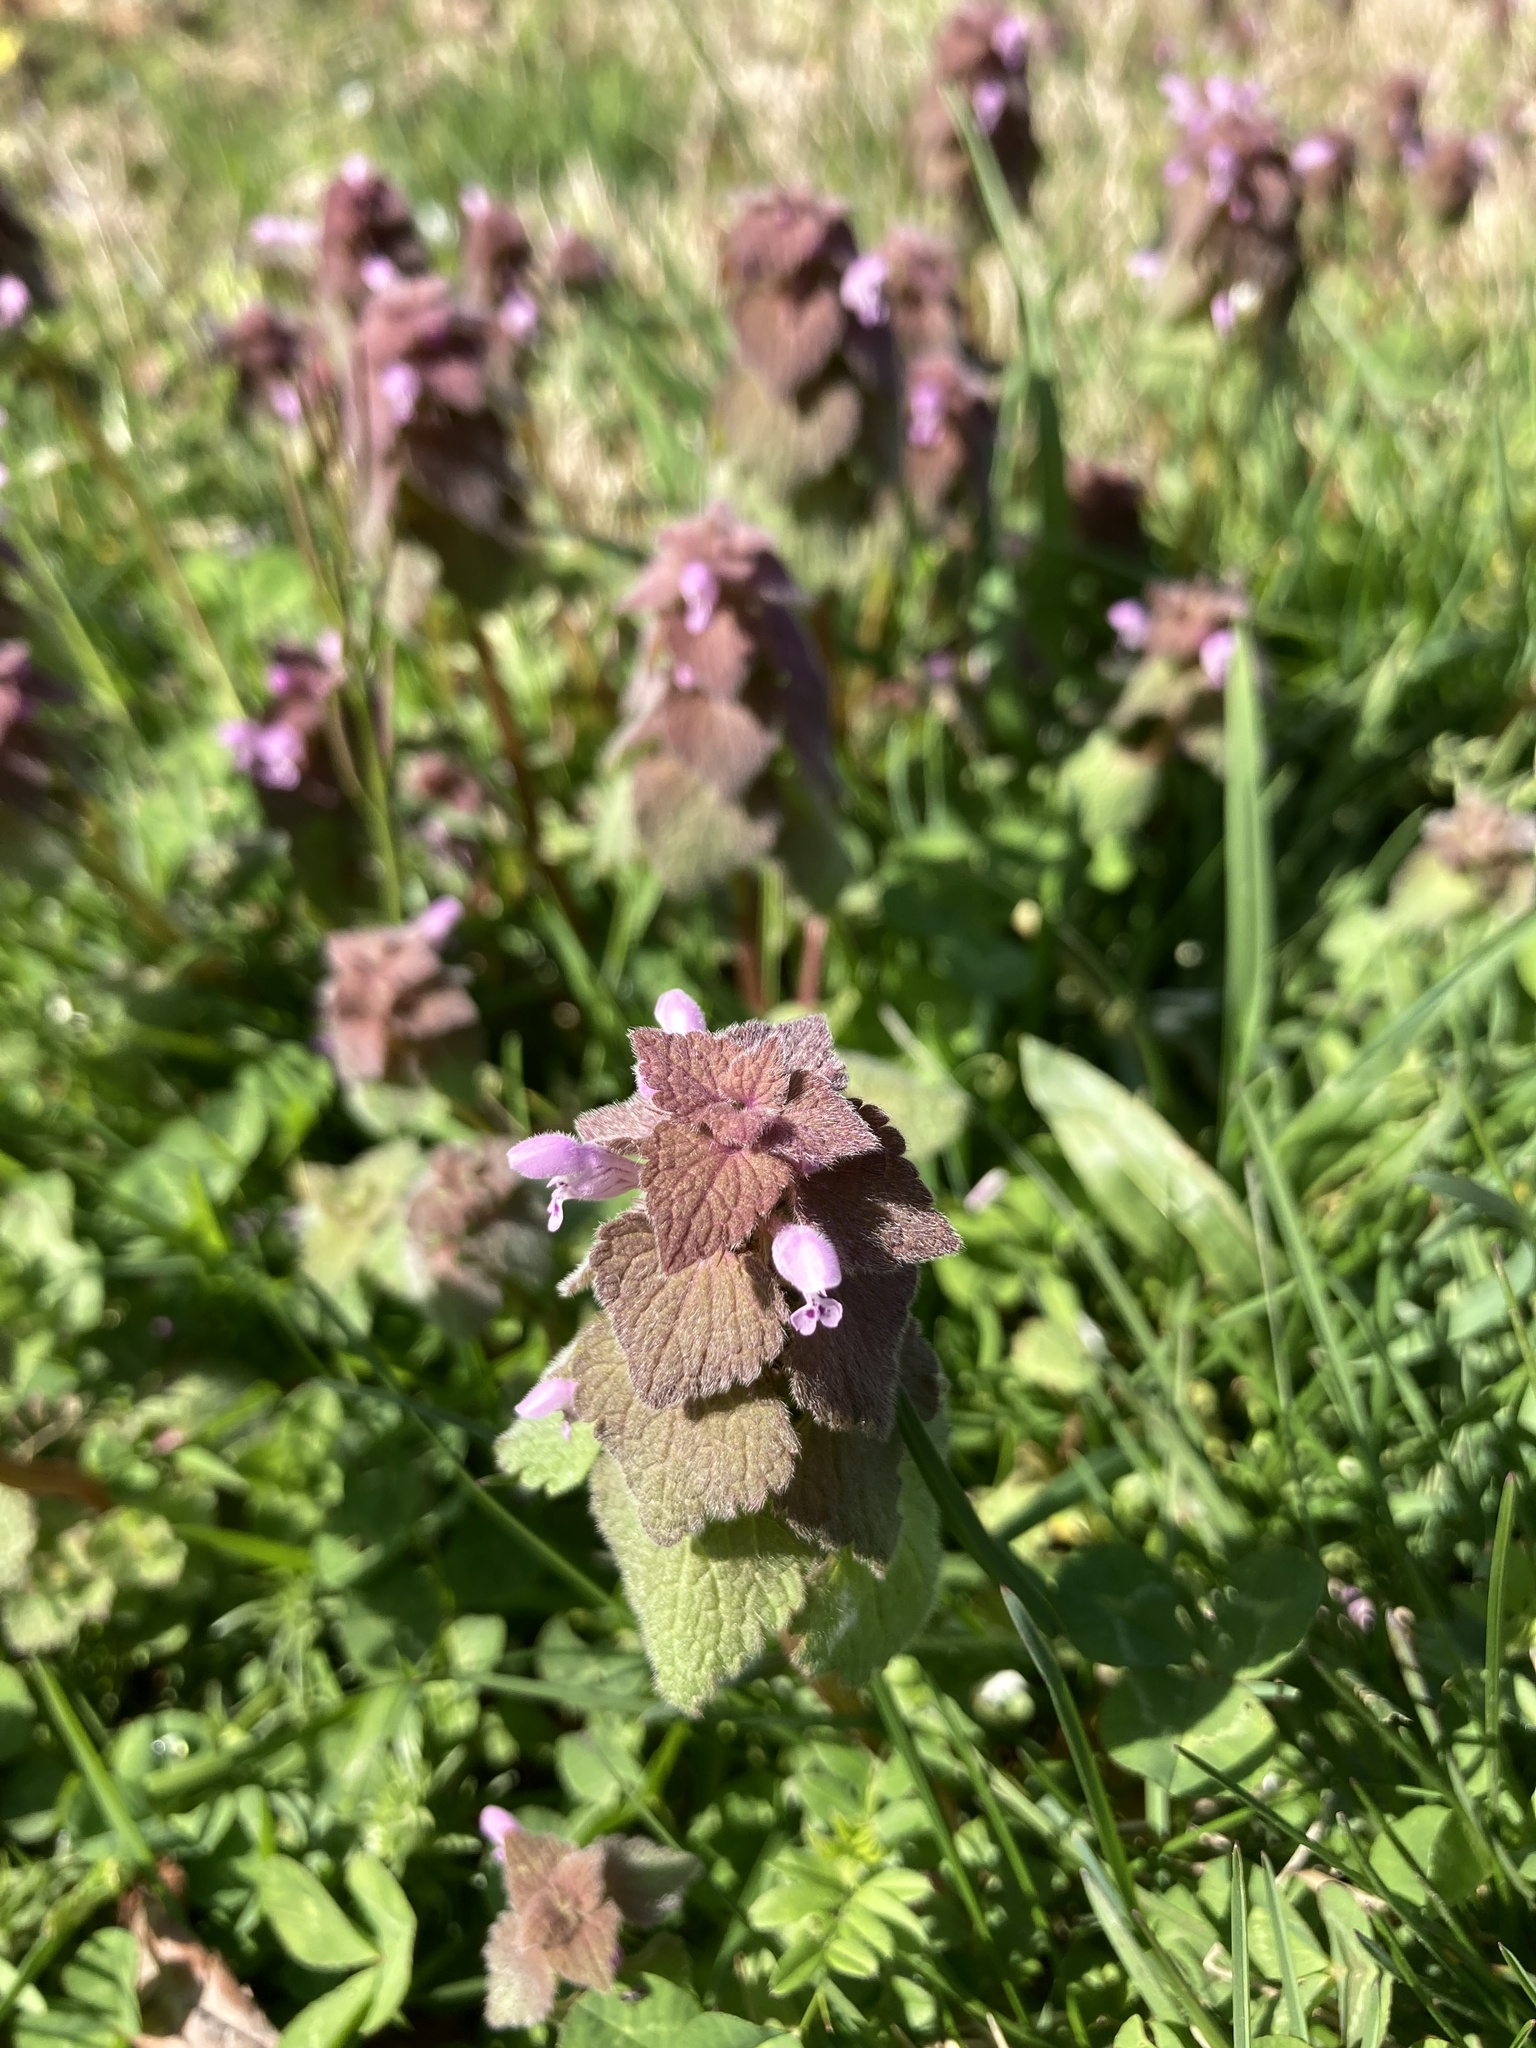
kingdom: Plantae
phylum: Tracheophyta
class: Magnoliopsida
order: Lamiales
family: Lamiaceae
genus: Lamium
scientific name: Lamium purpureum
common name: Red dead-nettle
